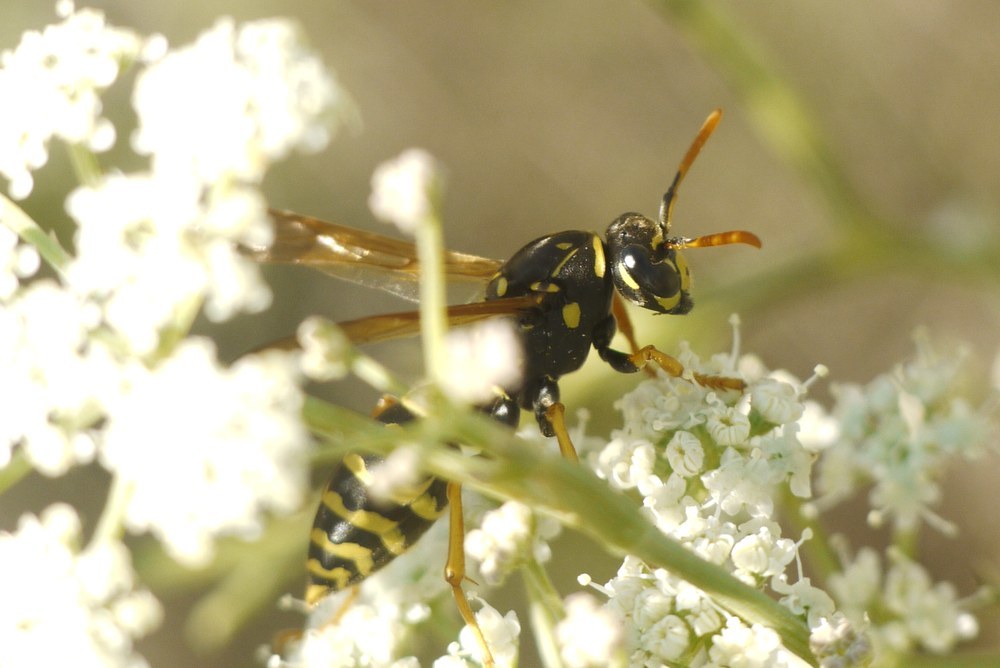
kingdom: Animalia
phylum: Arthropoda
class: Insecta
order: Hymenoptera
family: Eumenidae
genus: Polistes
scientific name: Polistes dominula
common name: Paper wasp
